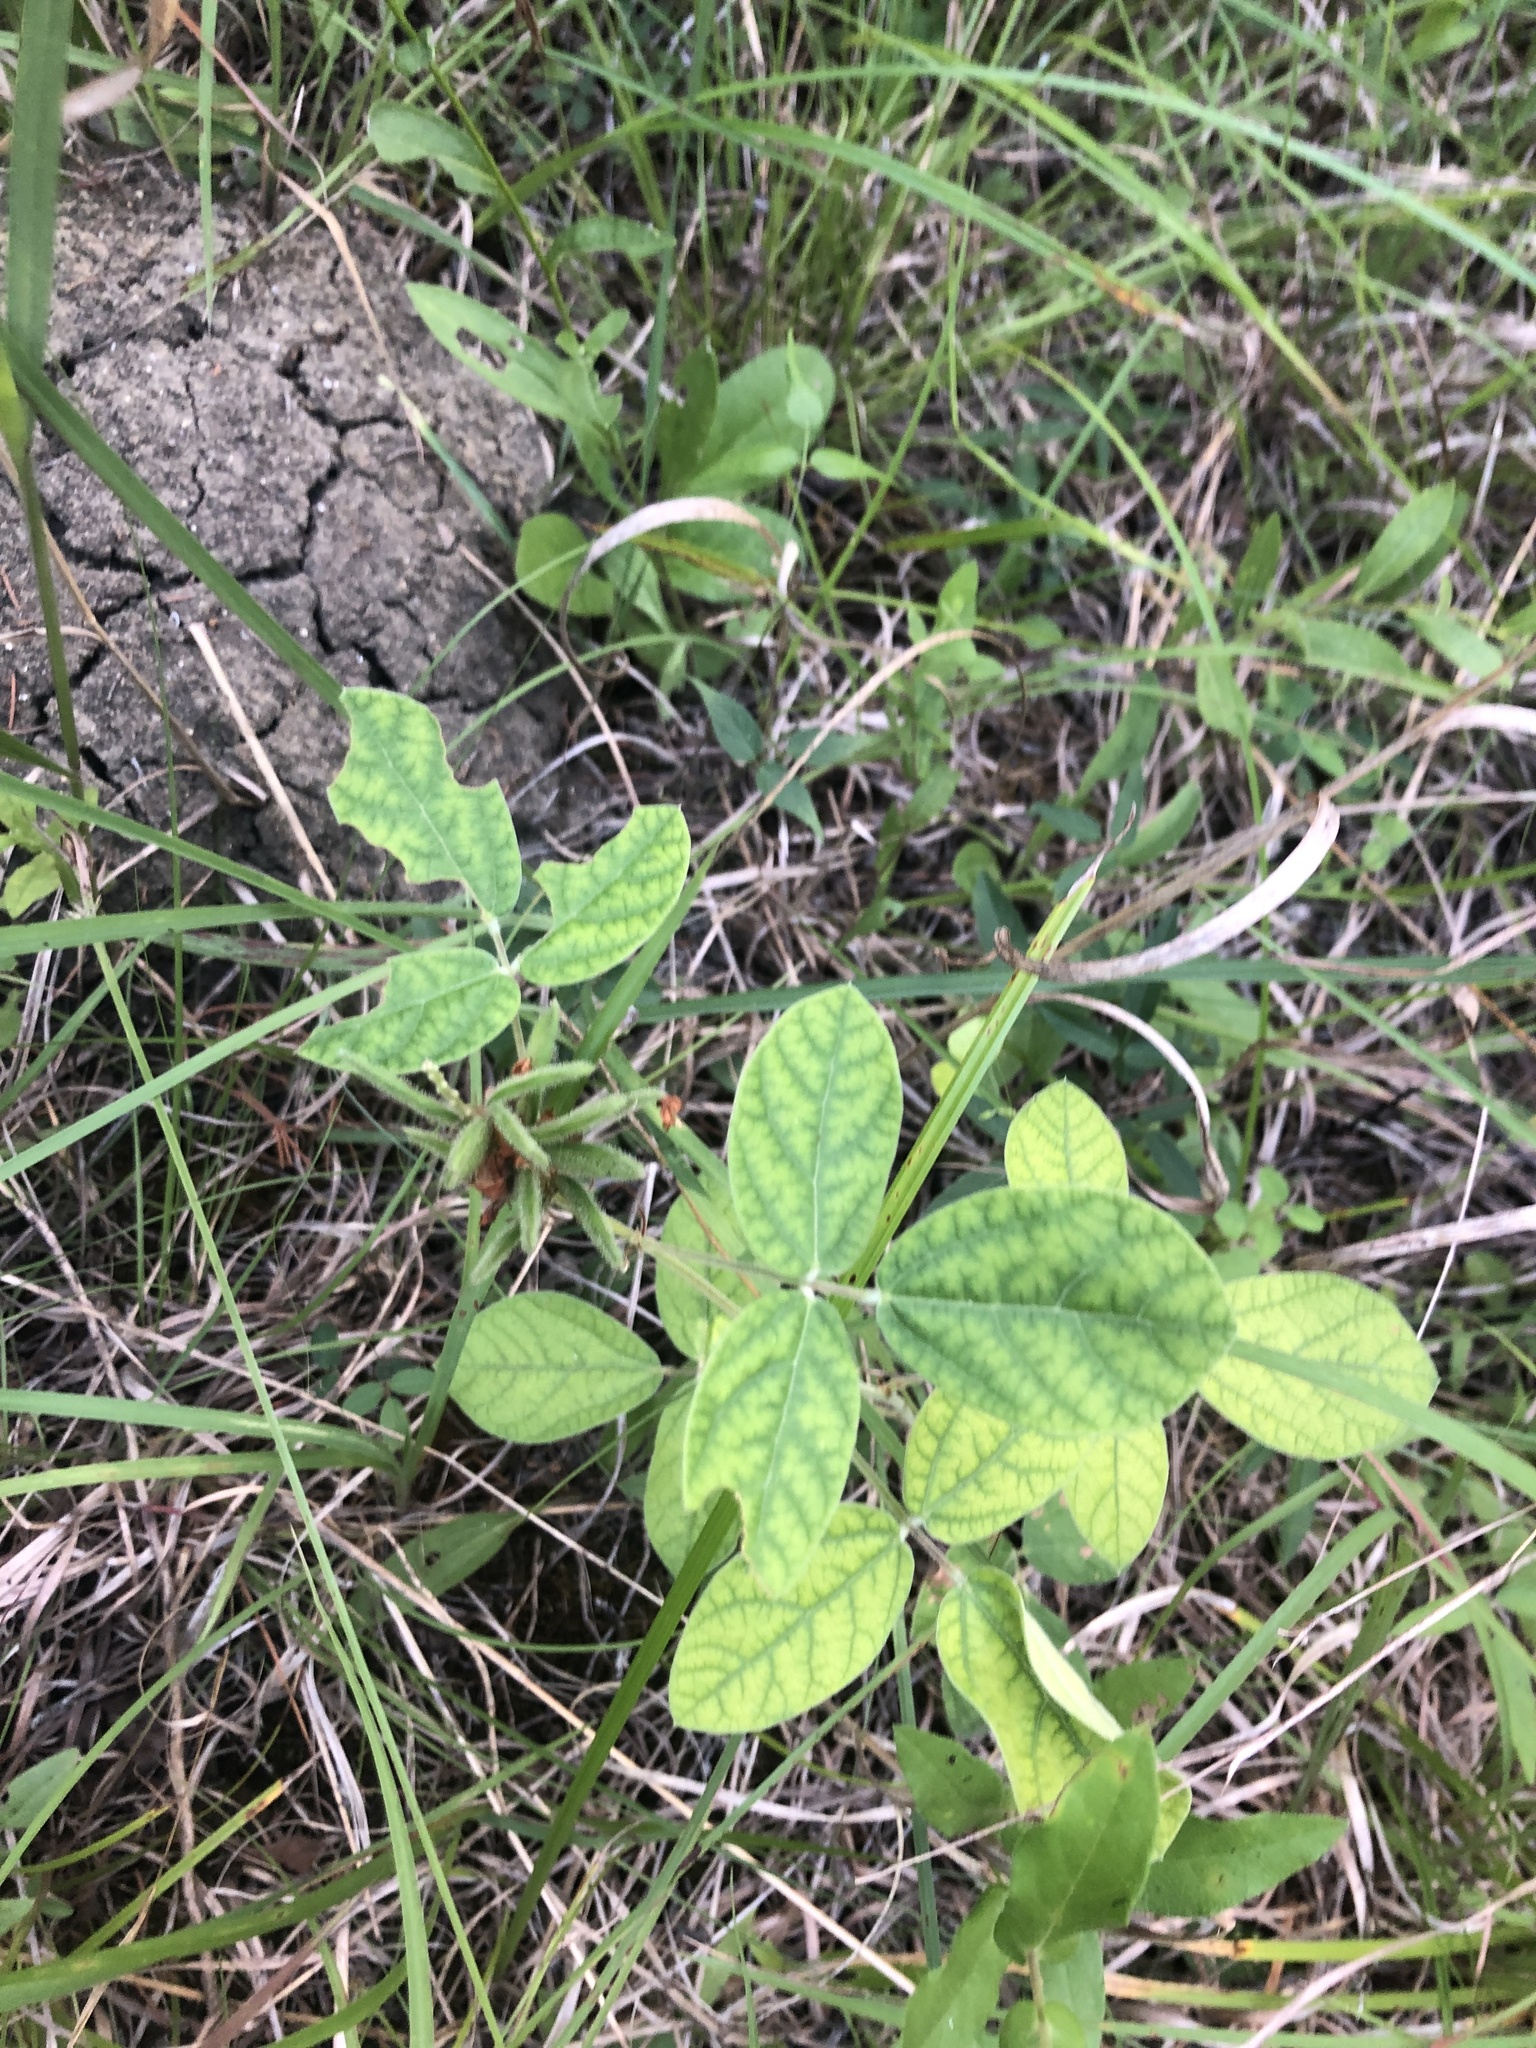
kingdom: Plantae
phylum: Tracheophyta
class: Magnoliopsida
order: Fabales
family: Fabaceae
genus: Rhynchosia
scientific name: Rhynchosia tomentosa
